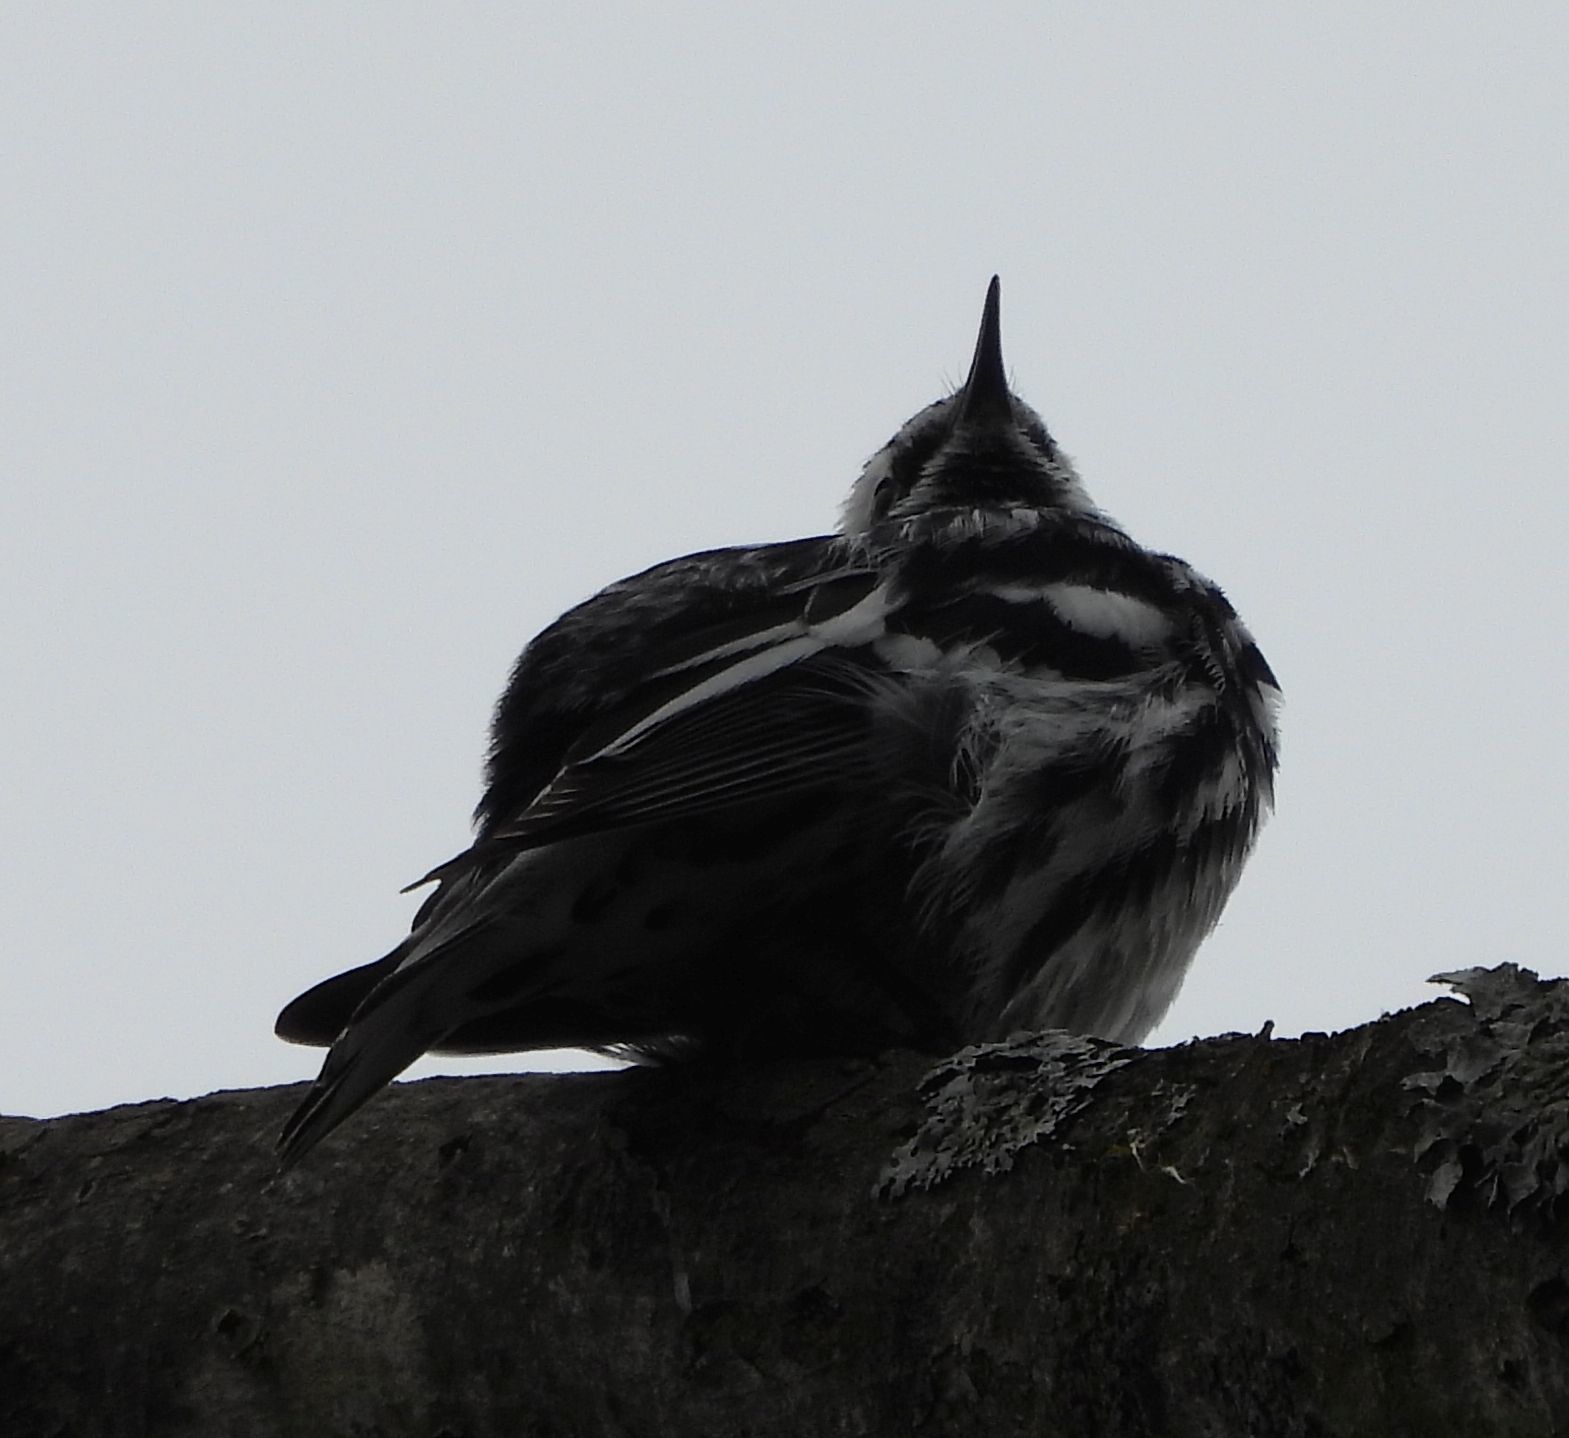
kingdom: Animalia
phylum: Chordata
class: Aves
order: Passeriformes
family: Parulidae
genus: Mniotilta
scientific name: Mniotilta varia
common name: Black-and-white warbler
